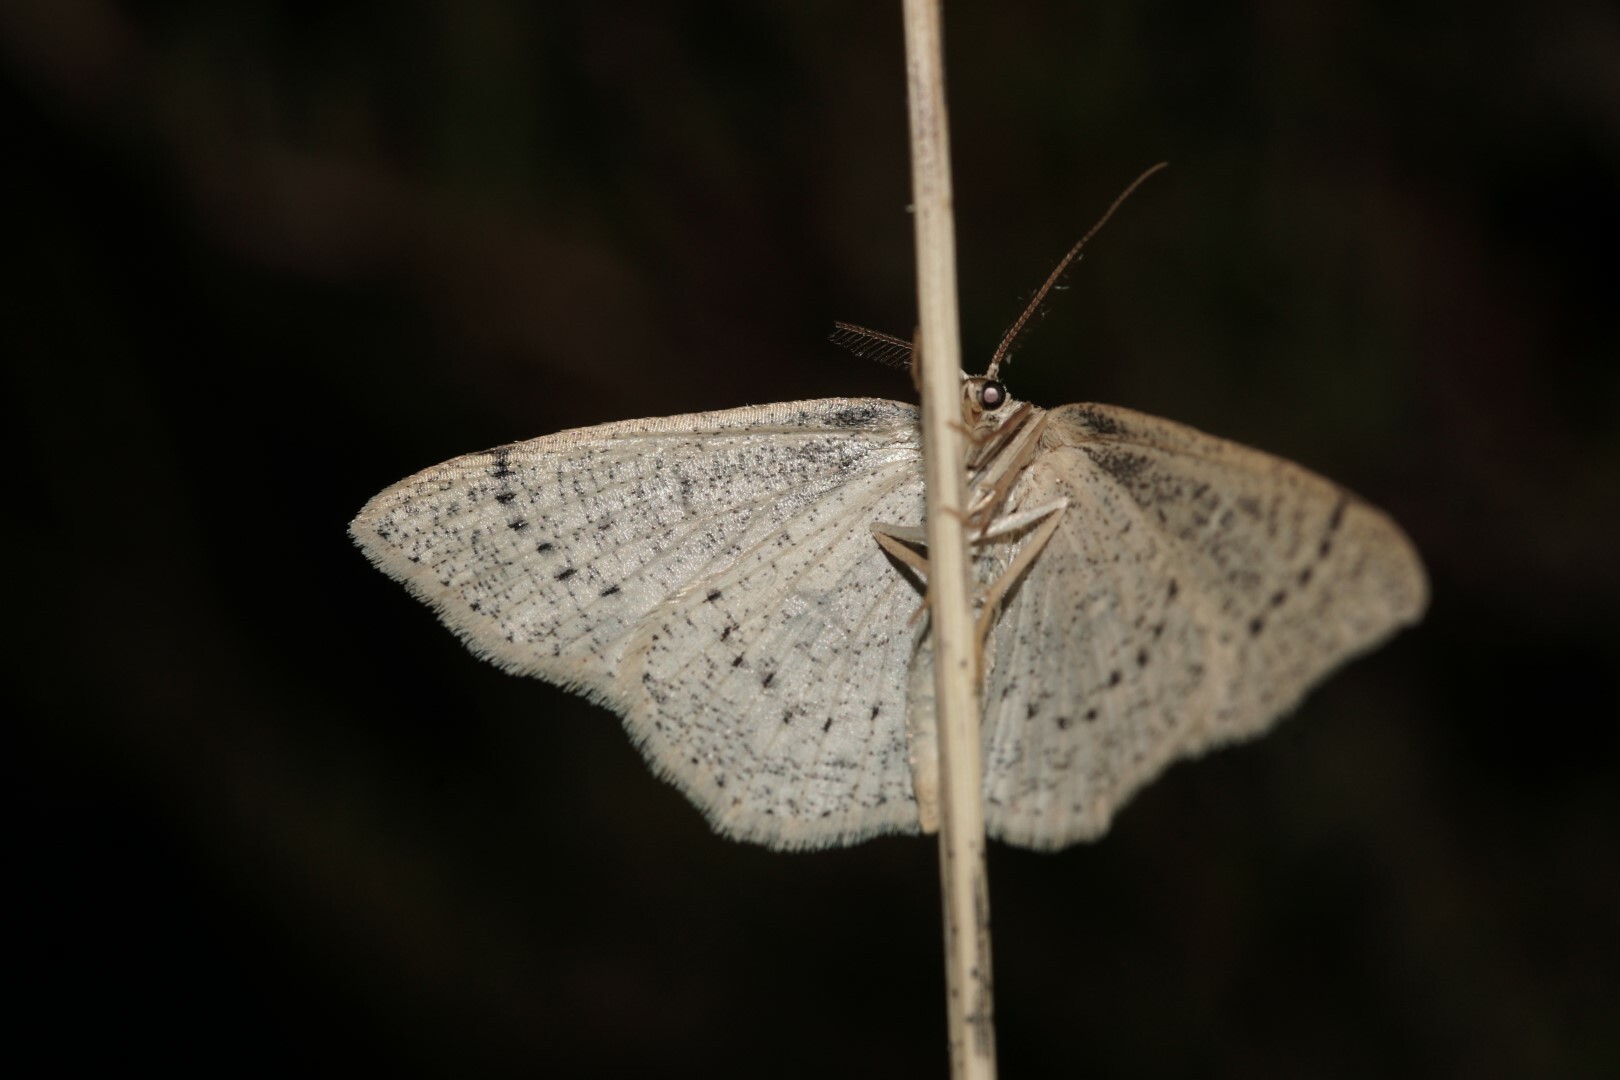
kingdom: Animalia
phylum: Arthropoda
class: Insecta
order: Lepidoptera
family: Geometridae
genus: Cyclophora
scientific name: Cyclophora albipunctata
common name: Birch mocha
